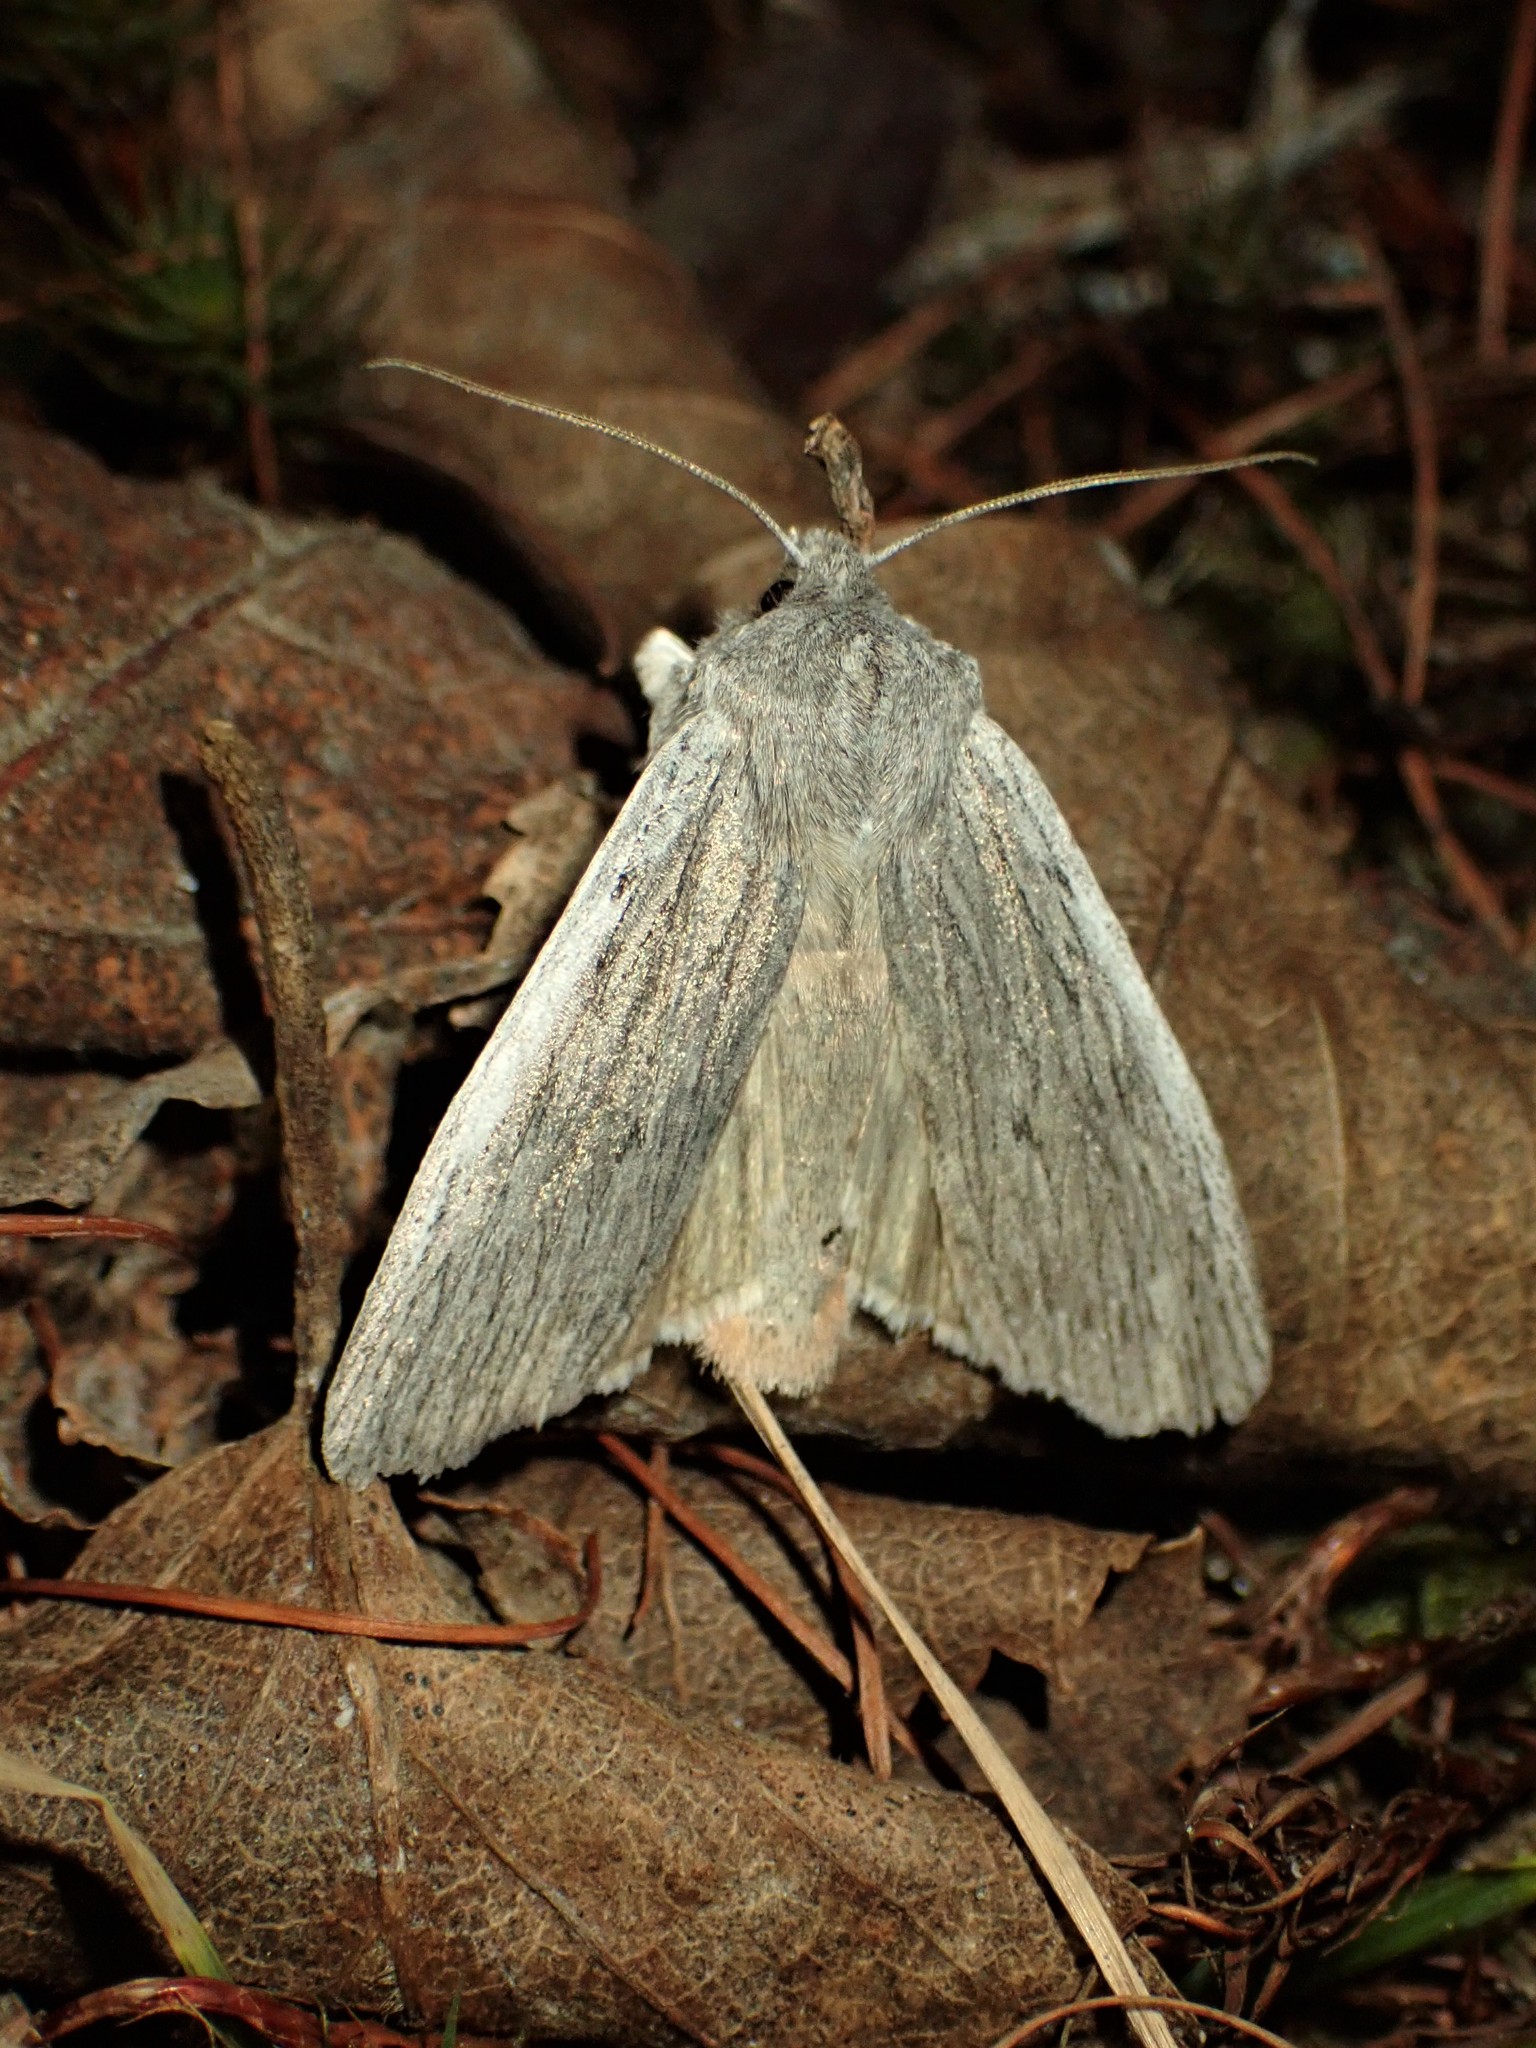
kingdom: Animalia
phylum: Arthropoda
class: Insecta
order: Lepidoptera
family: Noctuidae
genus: Lithophane
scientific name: Lithophane fagina
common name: Hoary pinion moth
